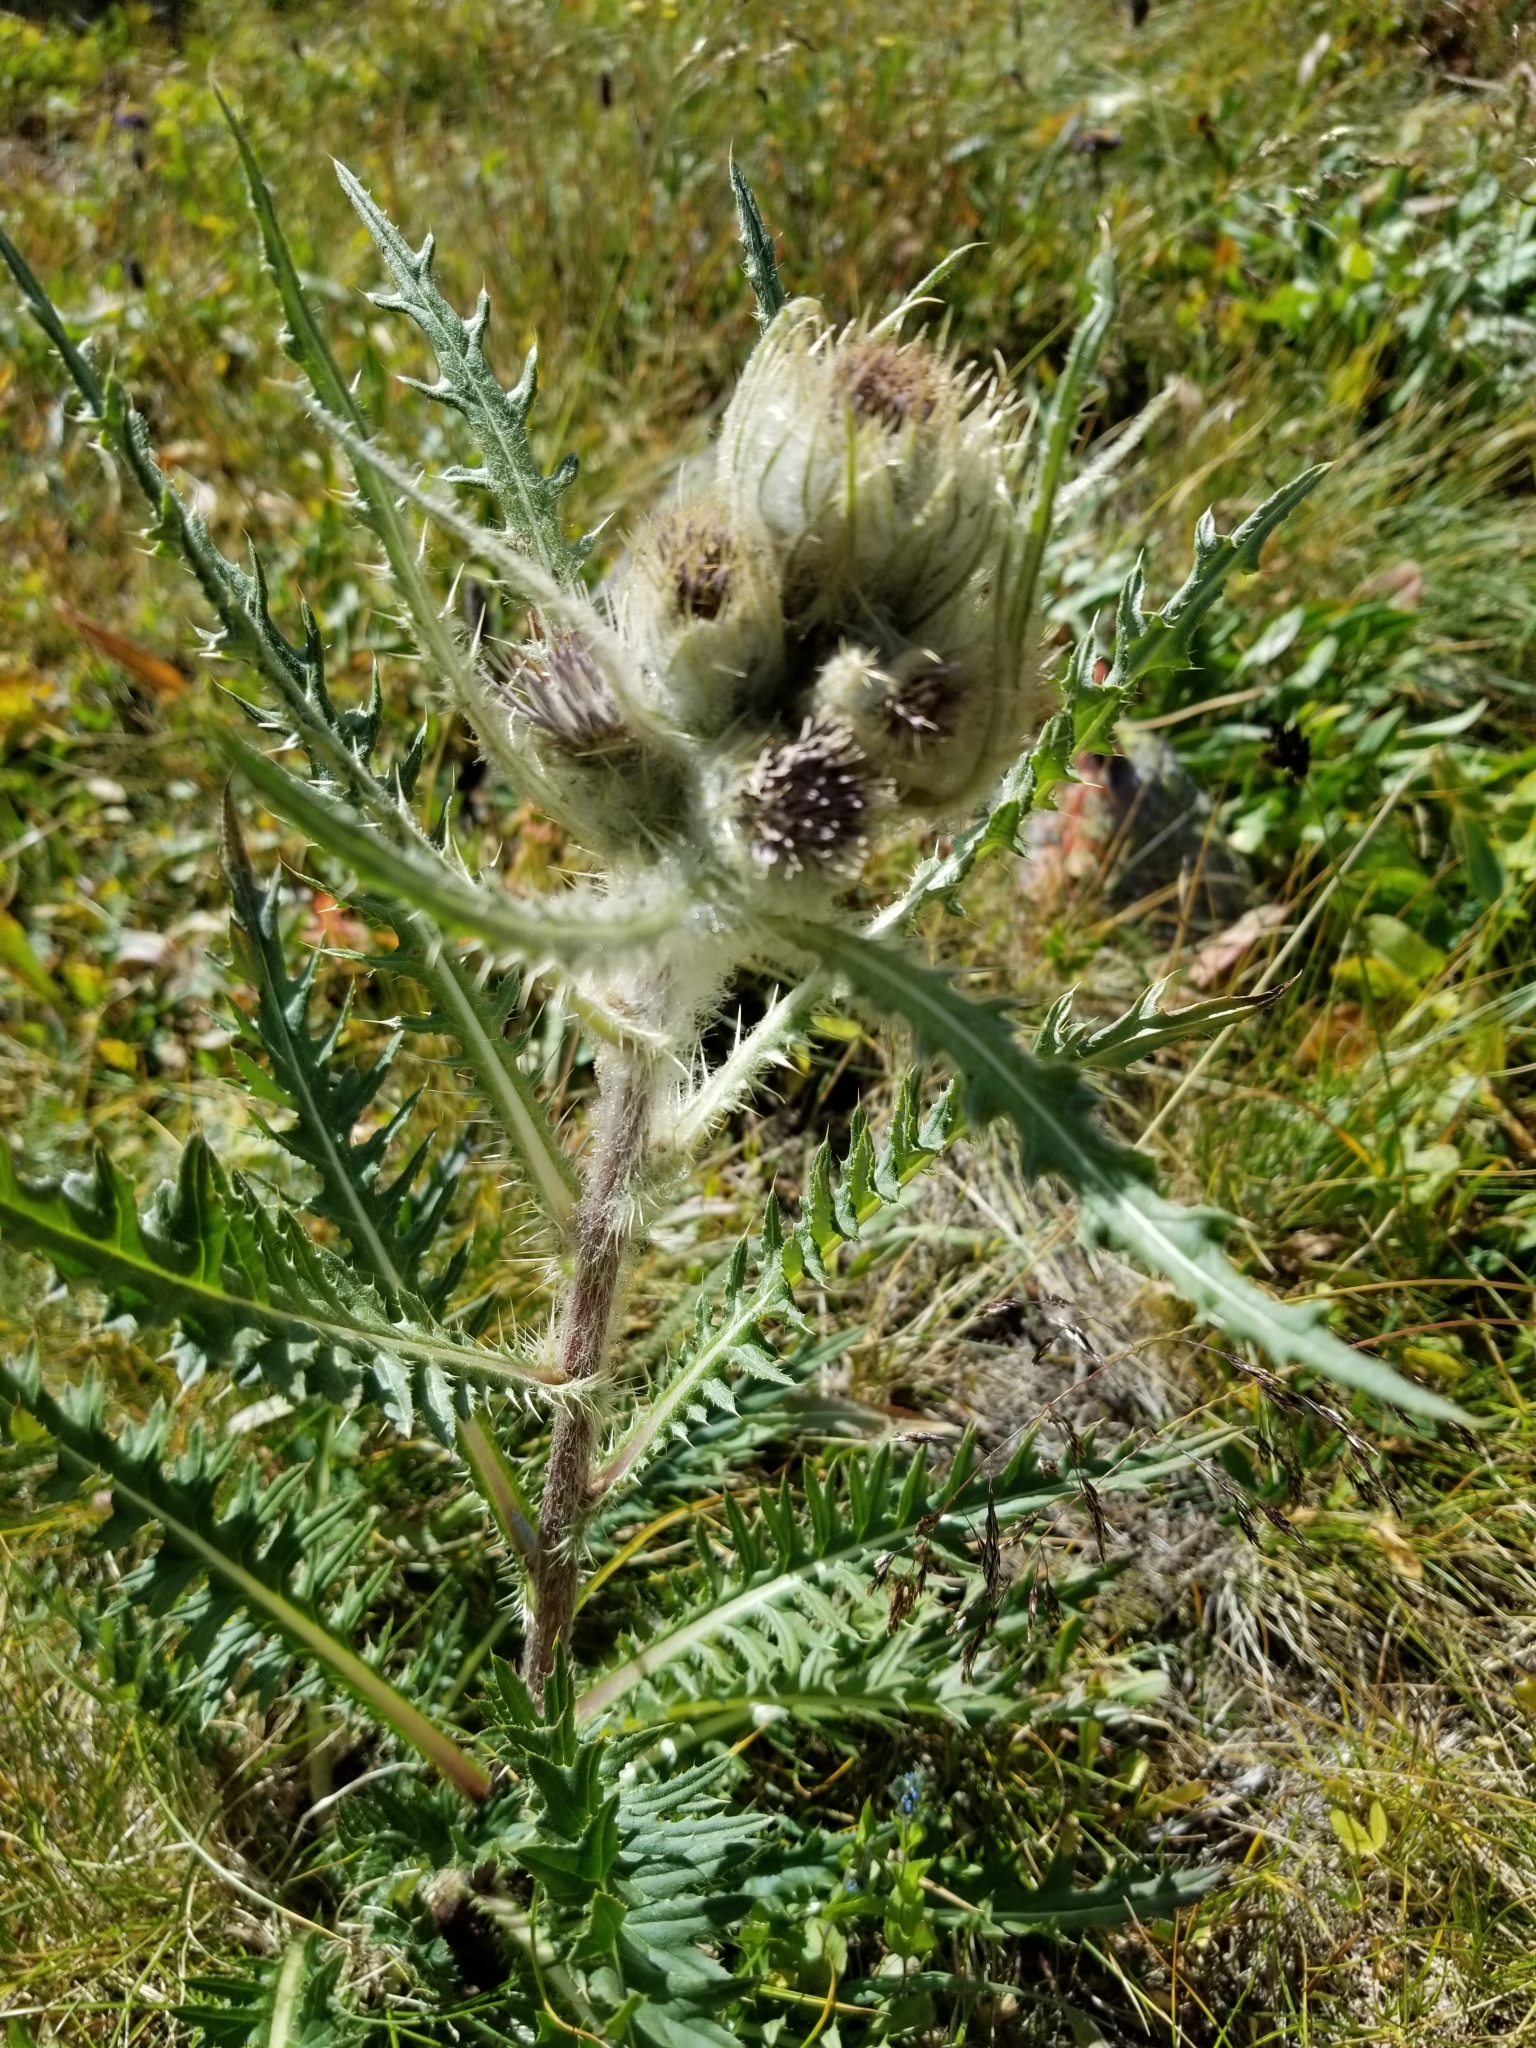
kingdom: Plantae
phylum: Tracheophyta
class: Magnoliopsida
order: Asterales
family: Asteraceae
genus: Cirsium
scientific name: Cirsium griseum
